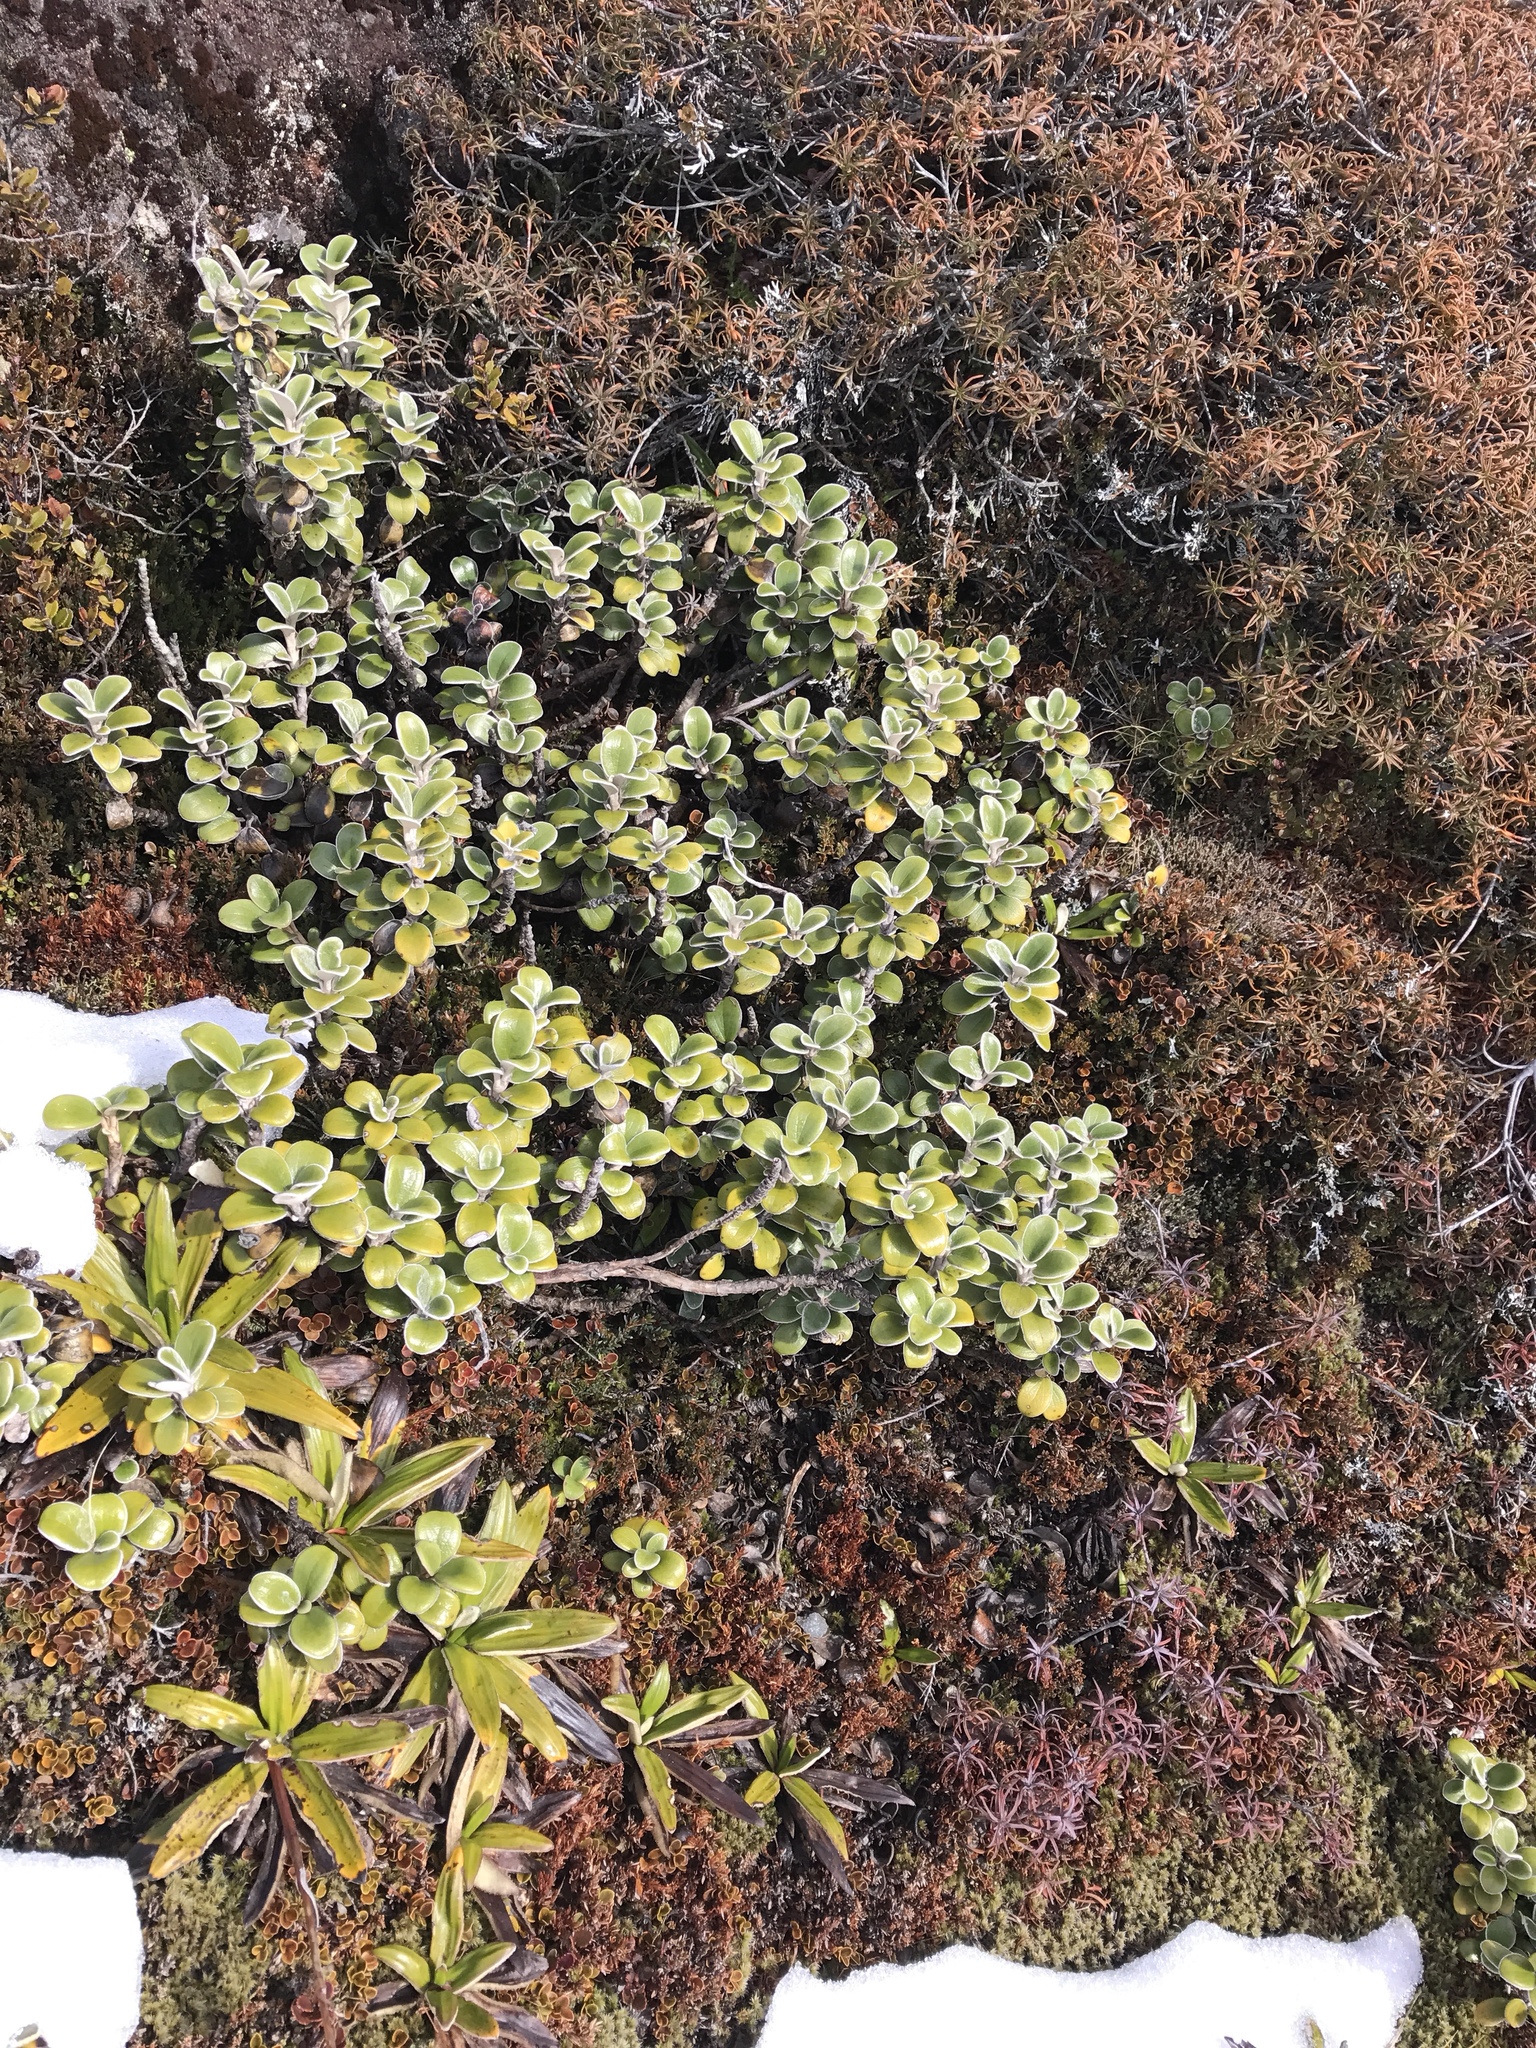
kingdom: Plantae
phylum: Tracheophyta
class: Magnoliopsida
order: Asterales
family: Asteraceae
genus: Brachyglottis
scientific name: Brachyglottis bidwillii
